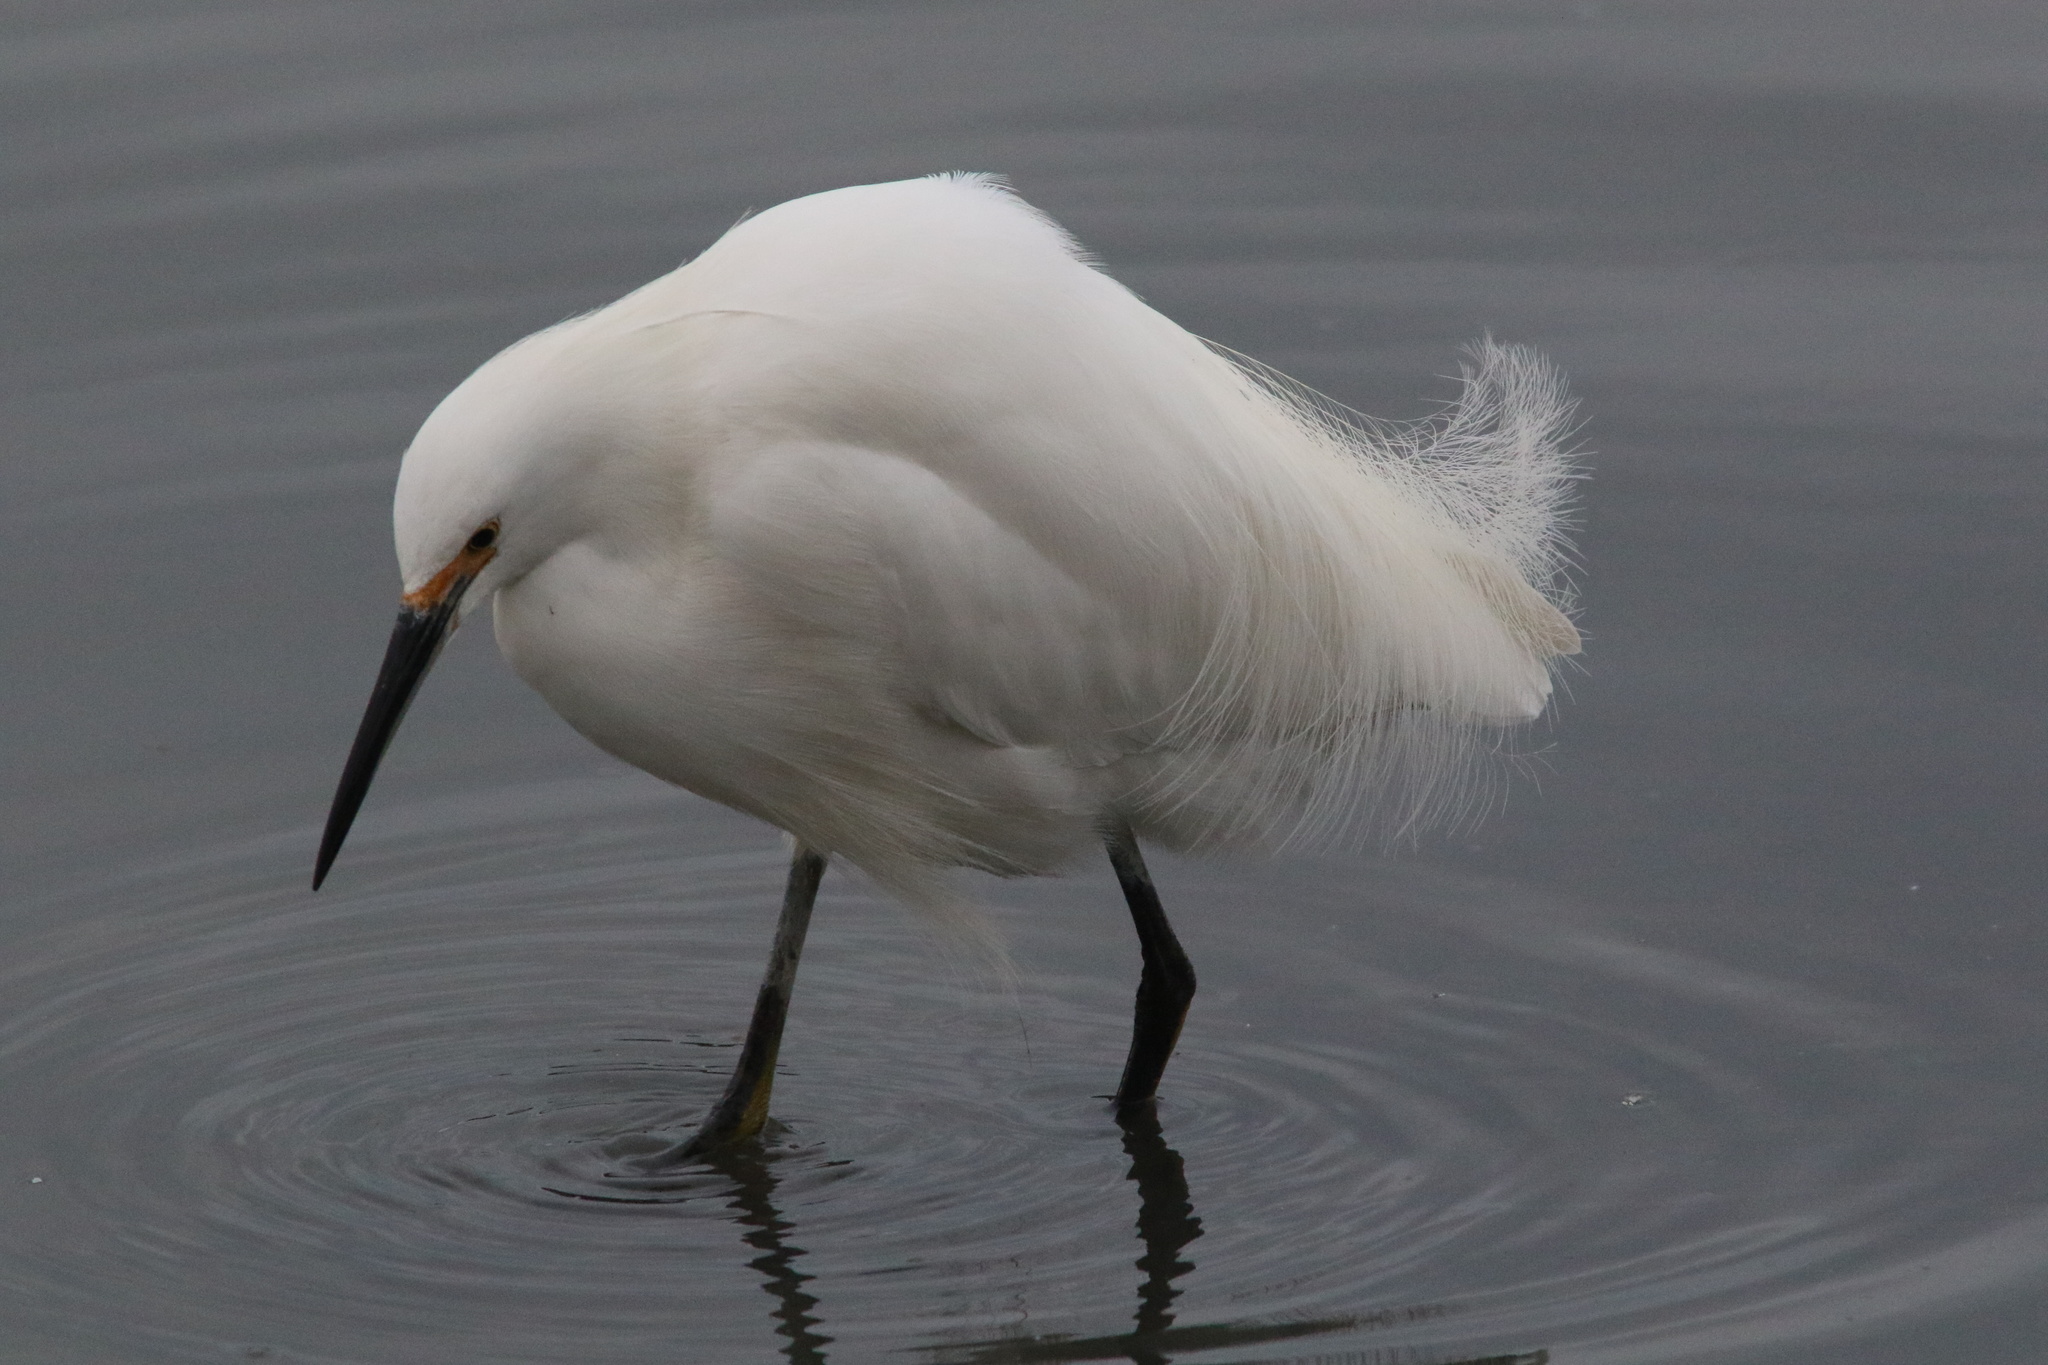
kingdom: Animalia
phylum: Chordata
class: Aves
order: Pelecaniformes
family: Ardeidae
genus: Egretta
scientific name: Egretta thula
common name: Snowy egret
